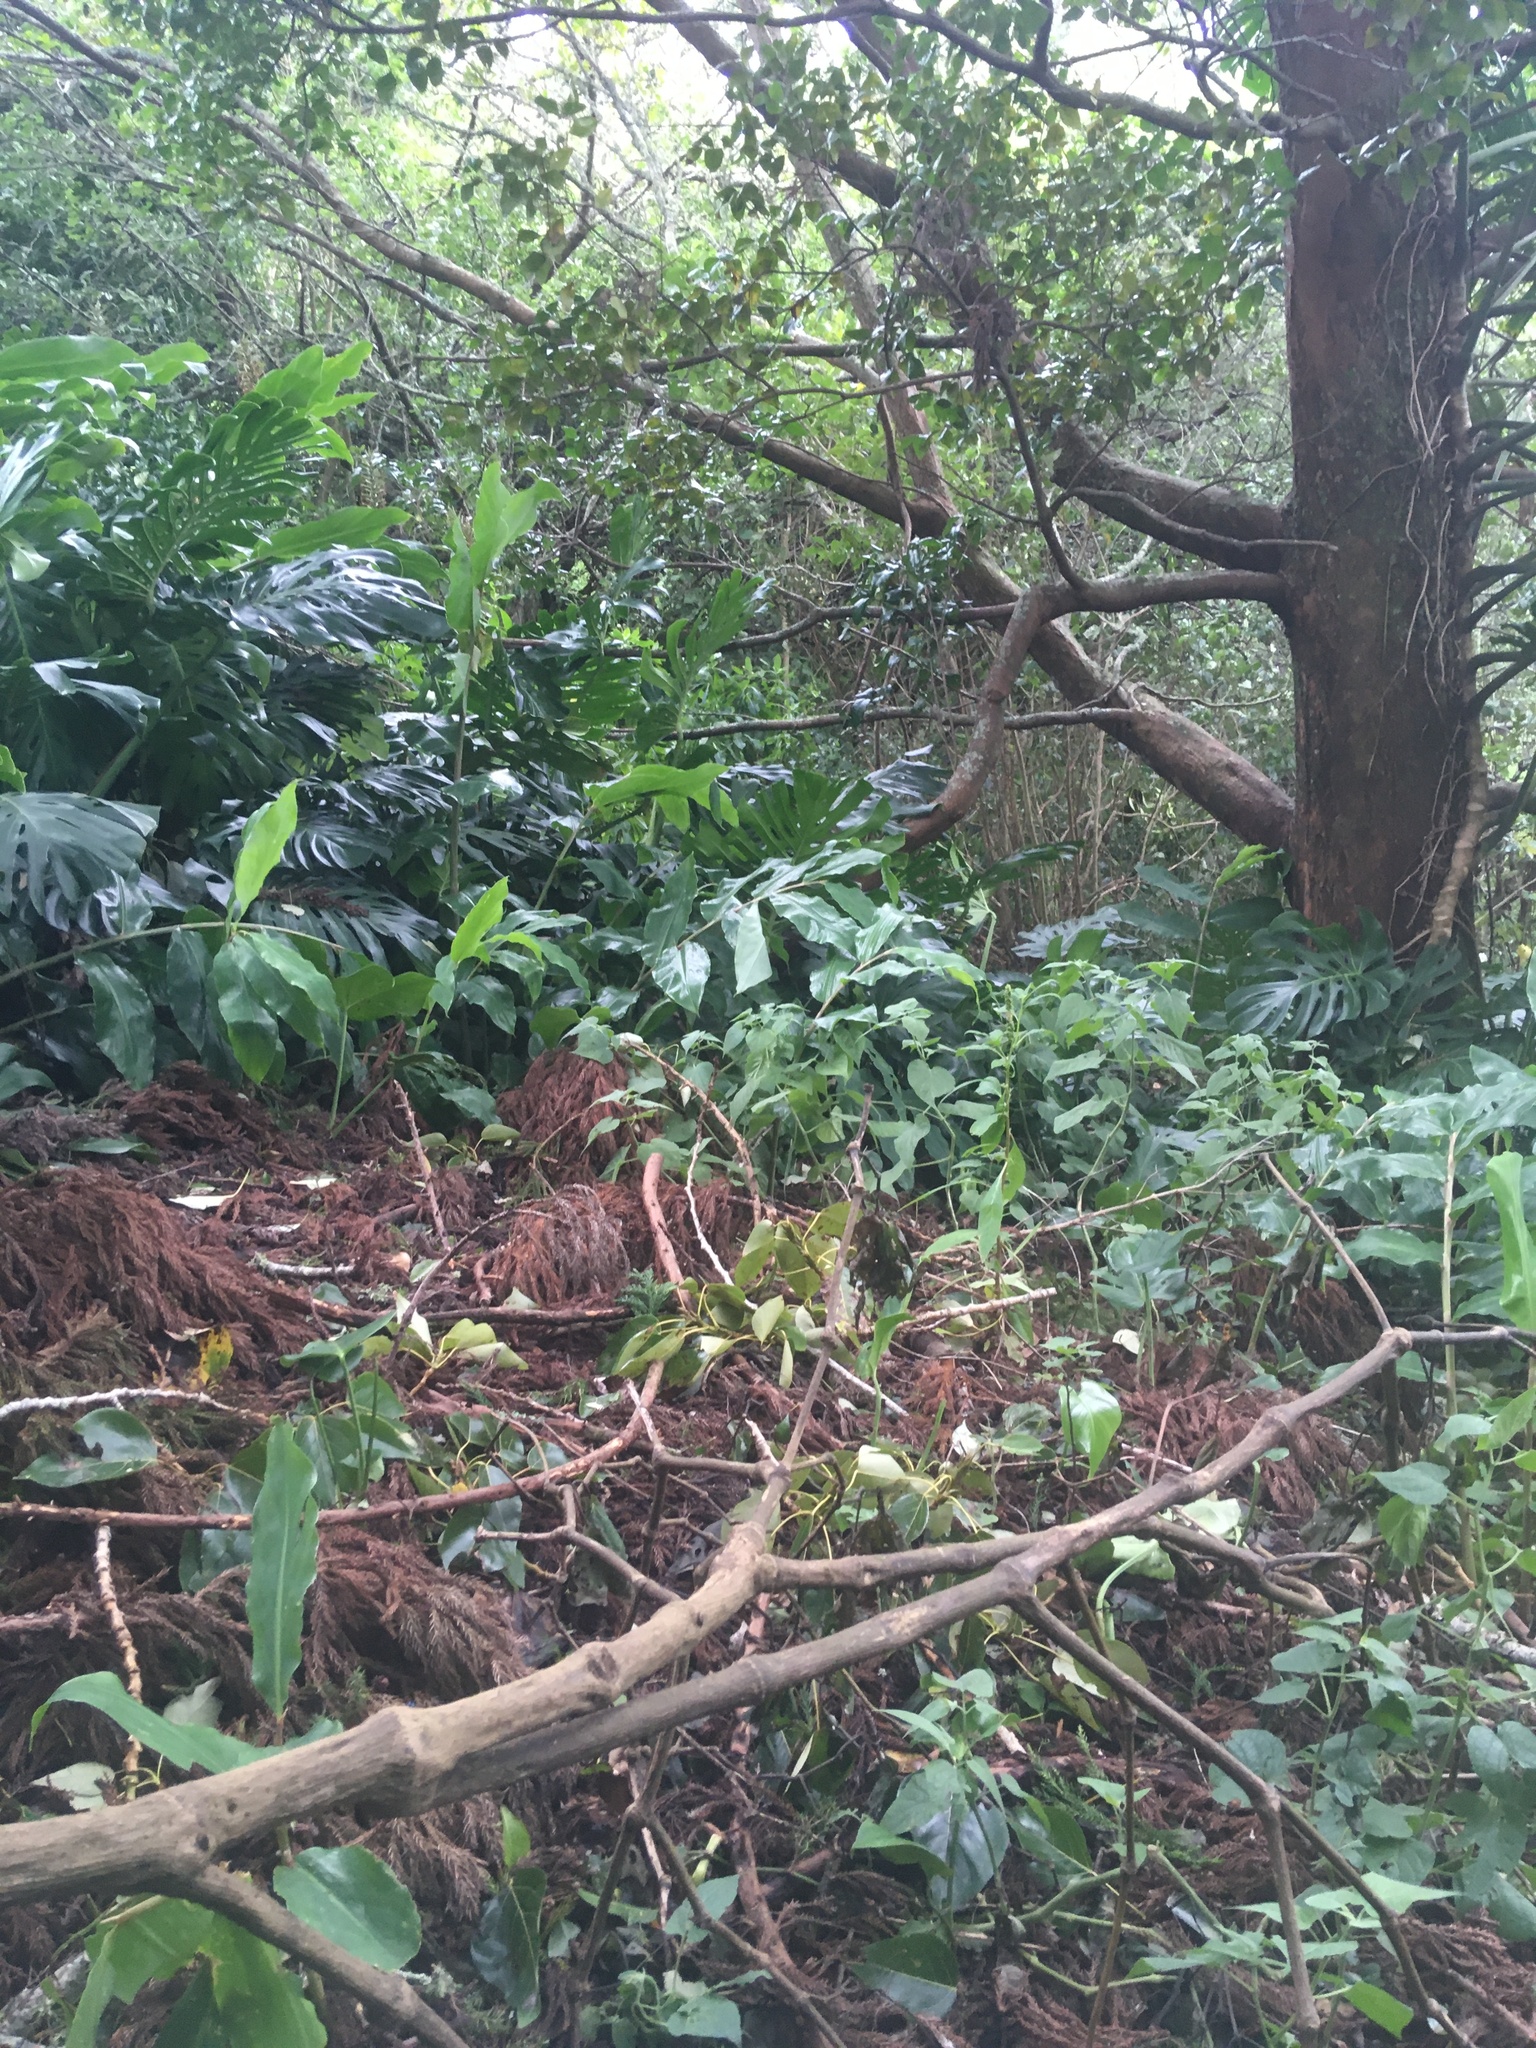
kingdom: Plantae
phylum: Tracheophyta
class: Liliopsida
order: Alismatales
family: Araceae
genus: Monstera
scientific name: Monstera deliciosa
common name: Cut-leaf-philodendron
